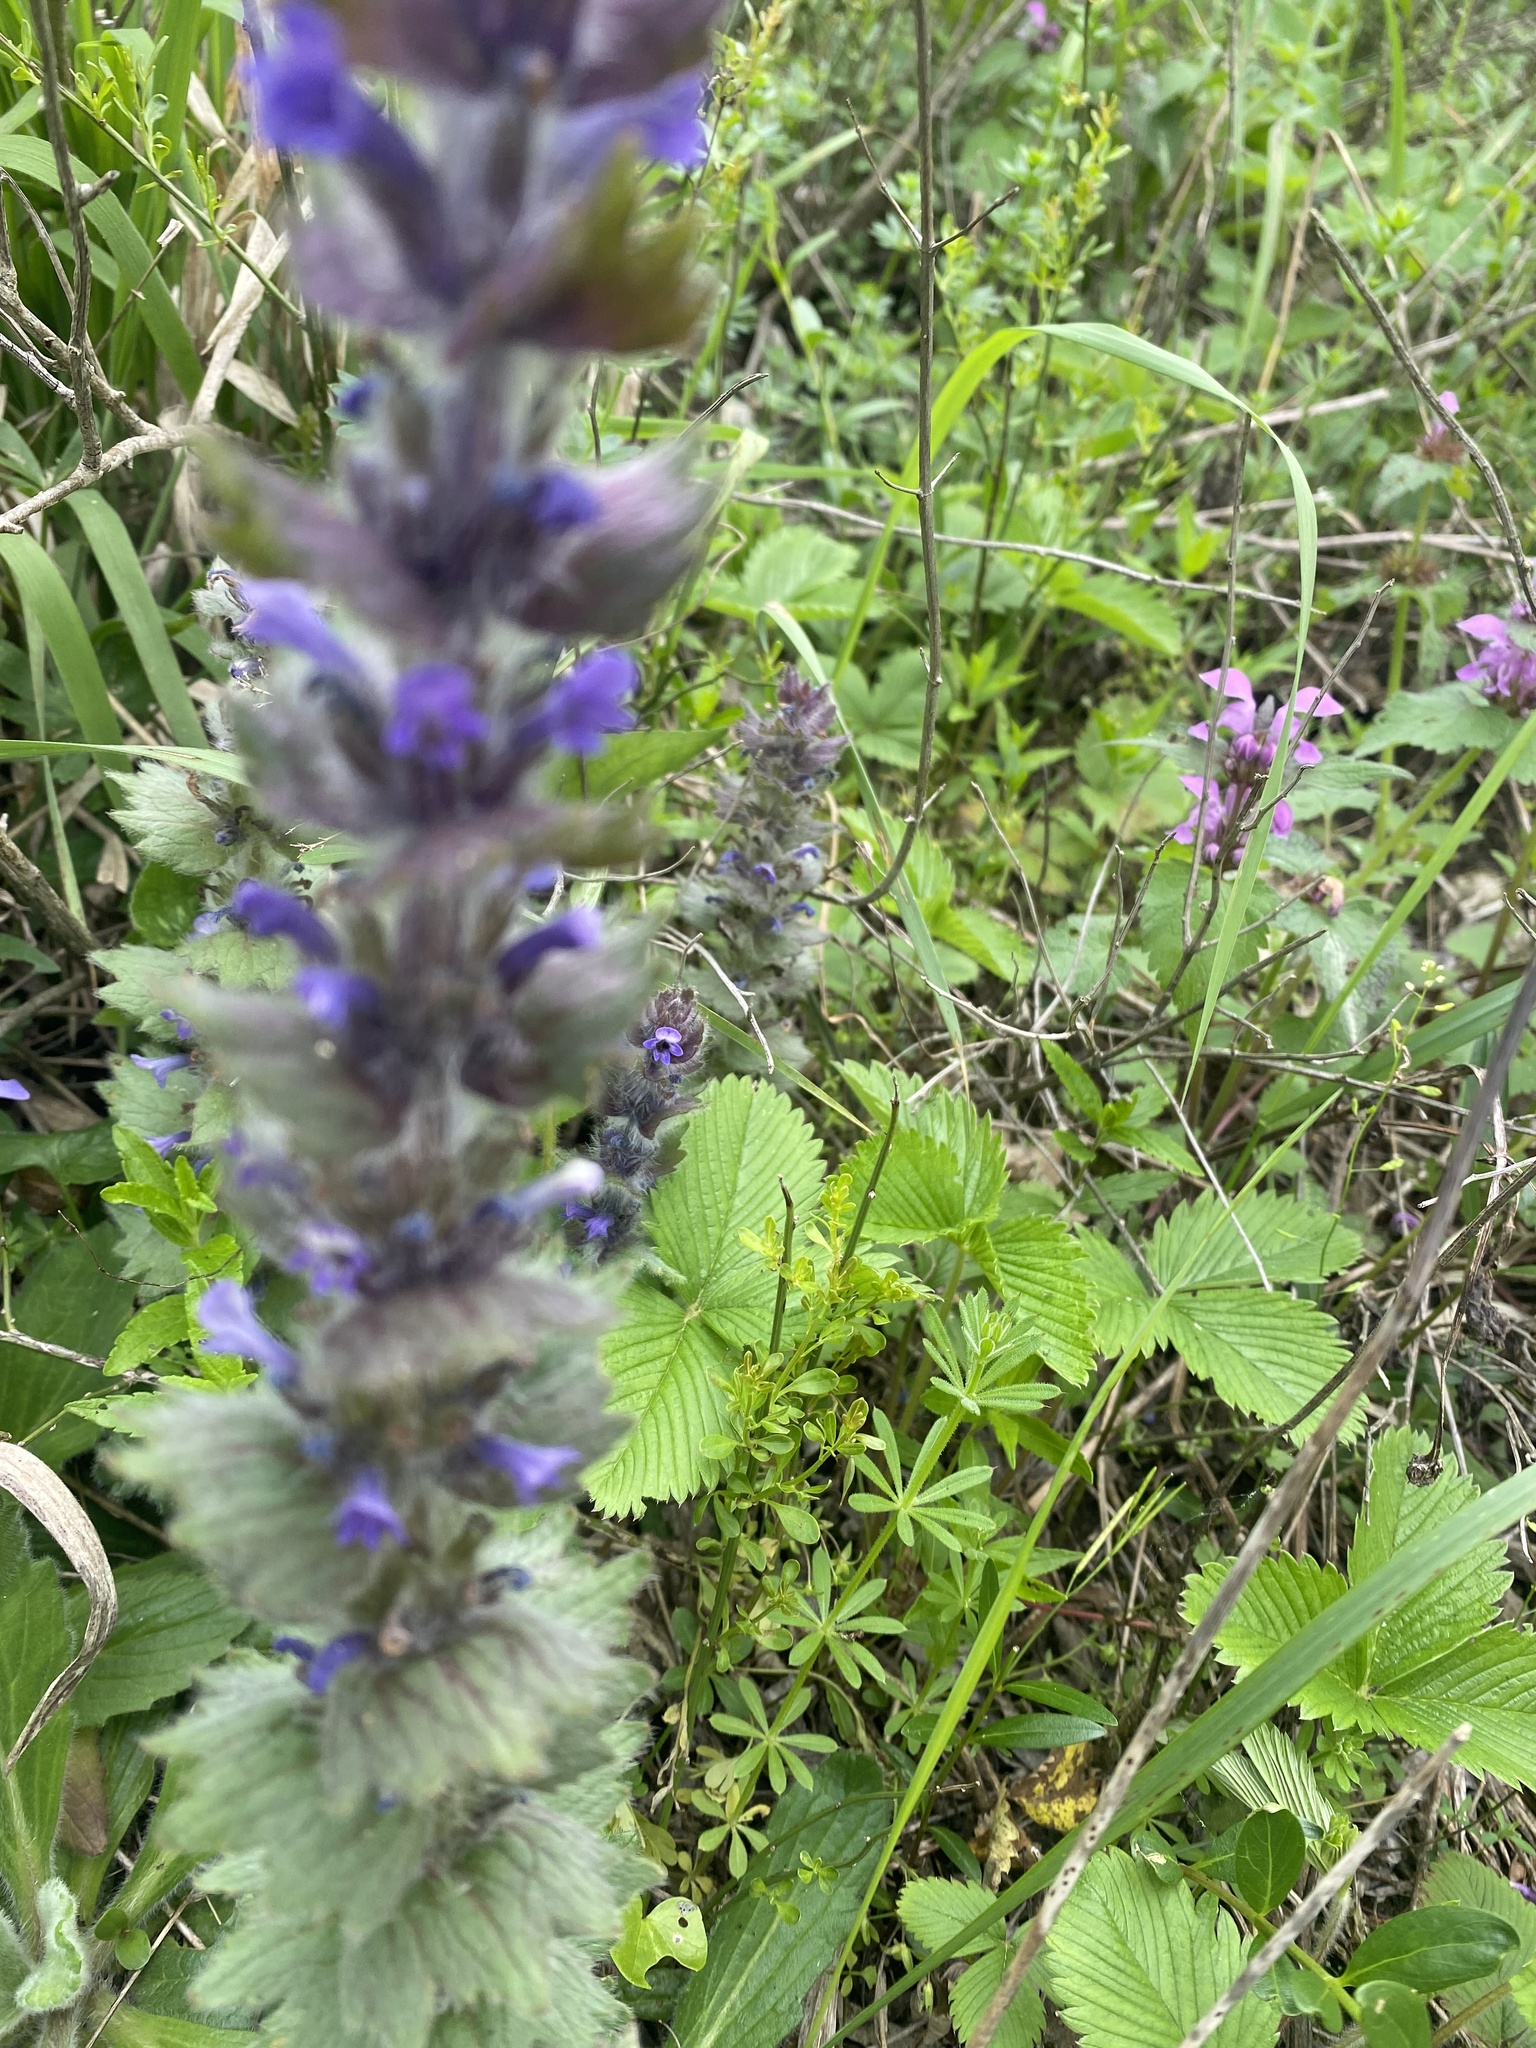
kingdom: Plantae
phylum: Tracheophyta
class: Magnoliopsida
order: Lamiales
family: Lamiaceae
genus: Ajuga
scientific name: Ajuga orientalis
